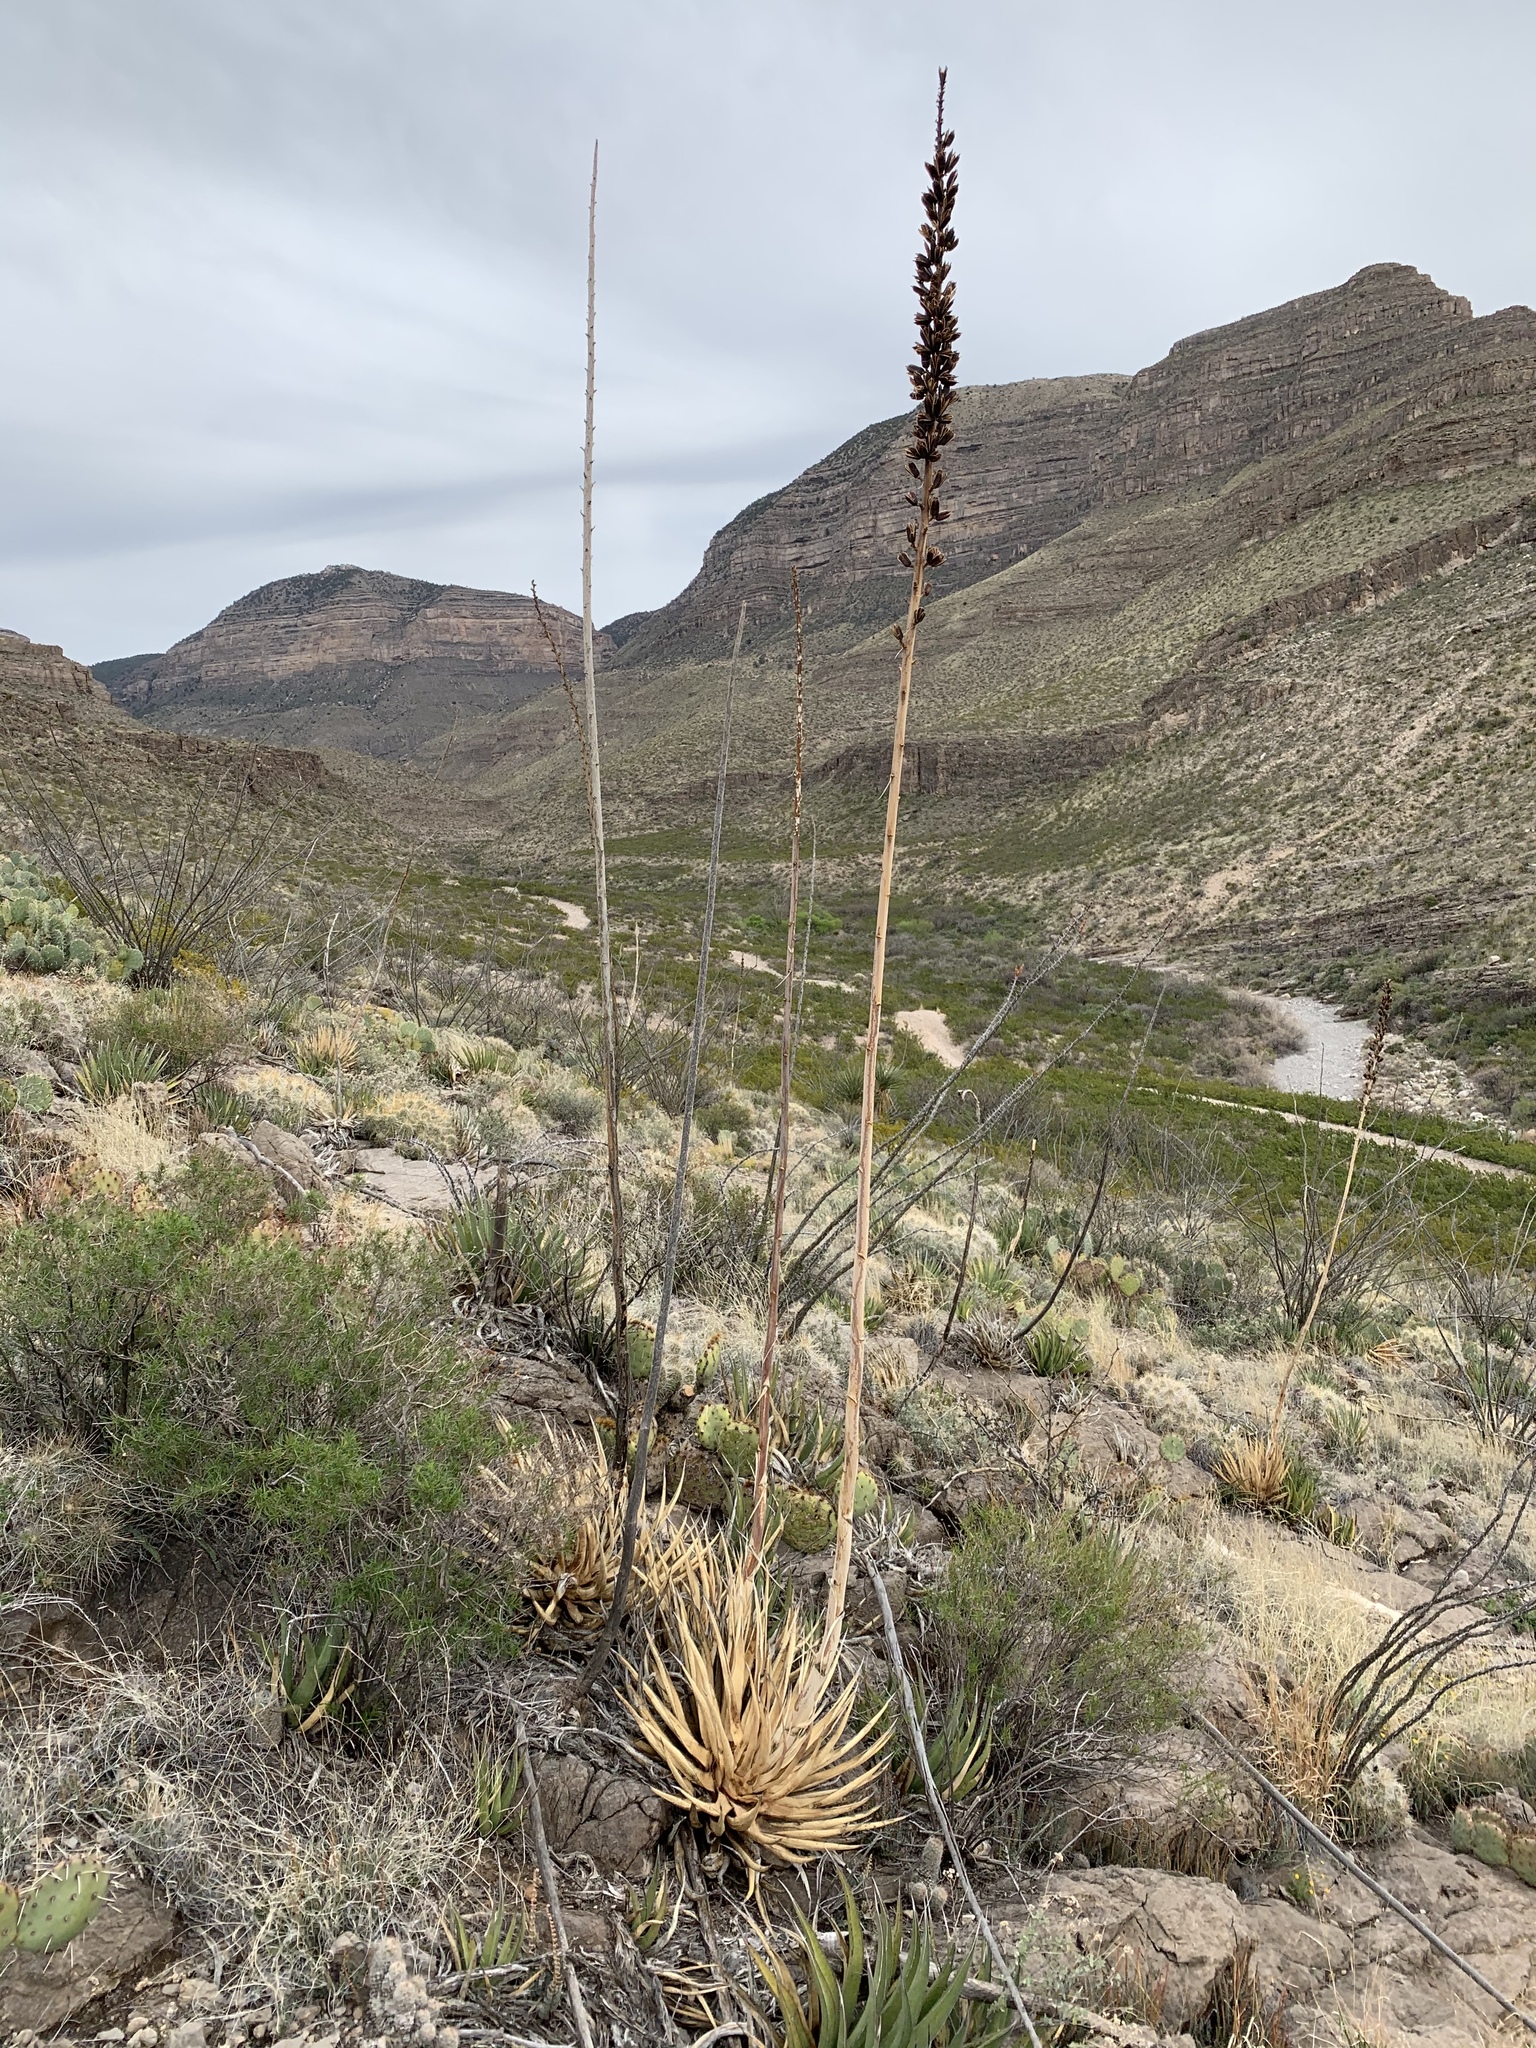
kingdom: Plantae
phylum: Tracheophyta
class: Liliopsida
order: Asparagales
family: Asparagaceae
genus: Agave
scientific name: Agave lechuguilla
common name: Lecheguilla agave
